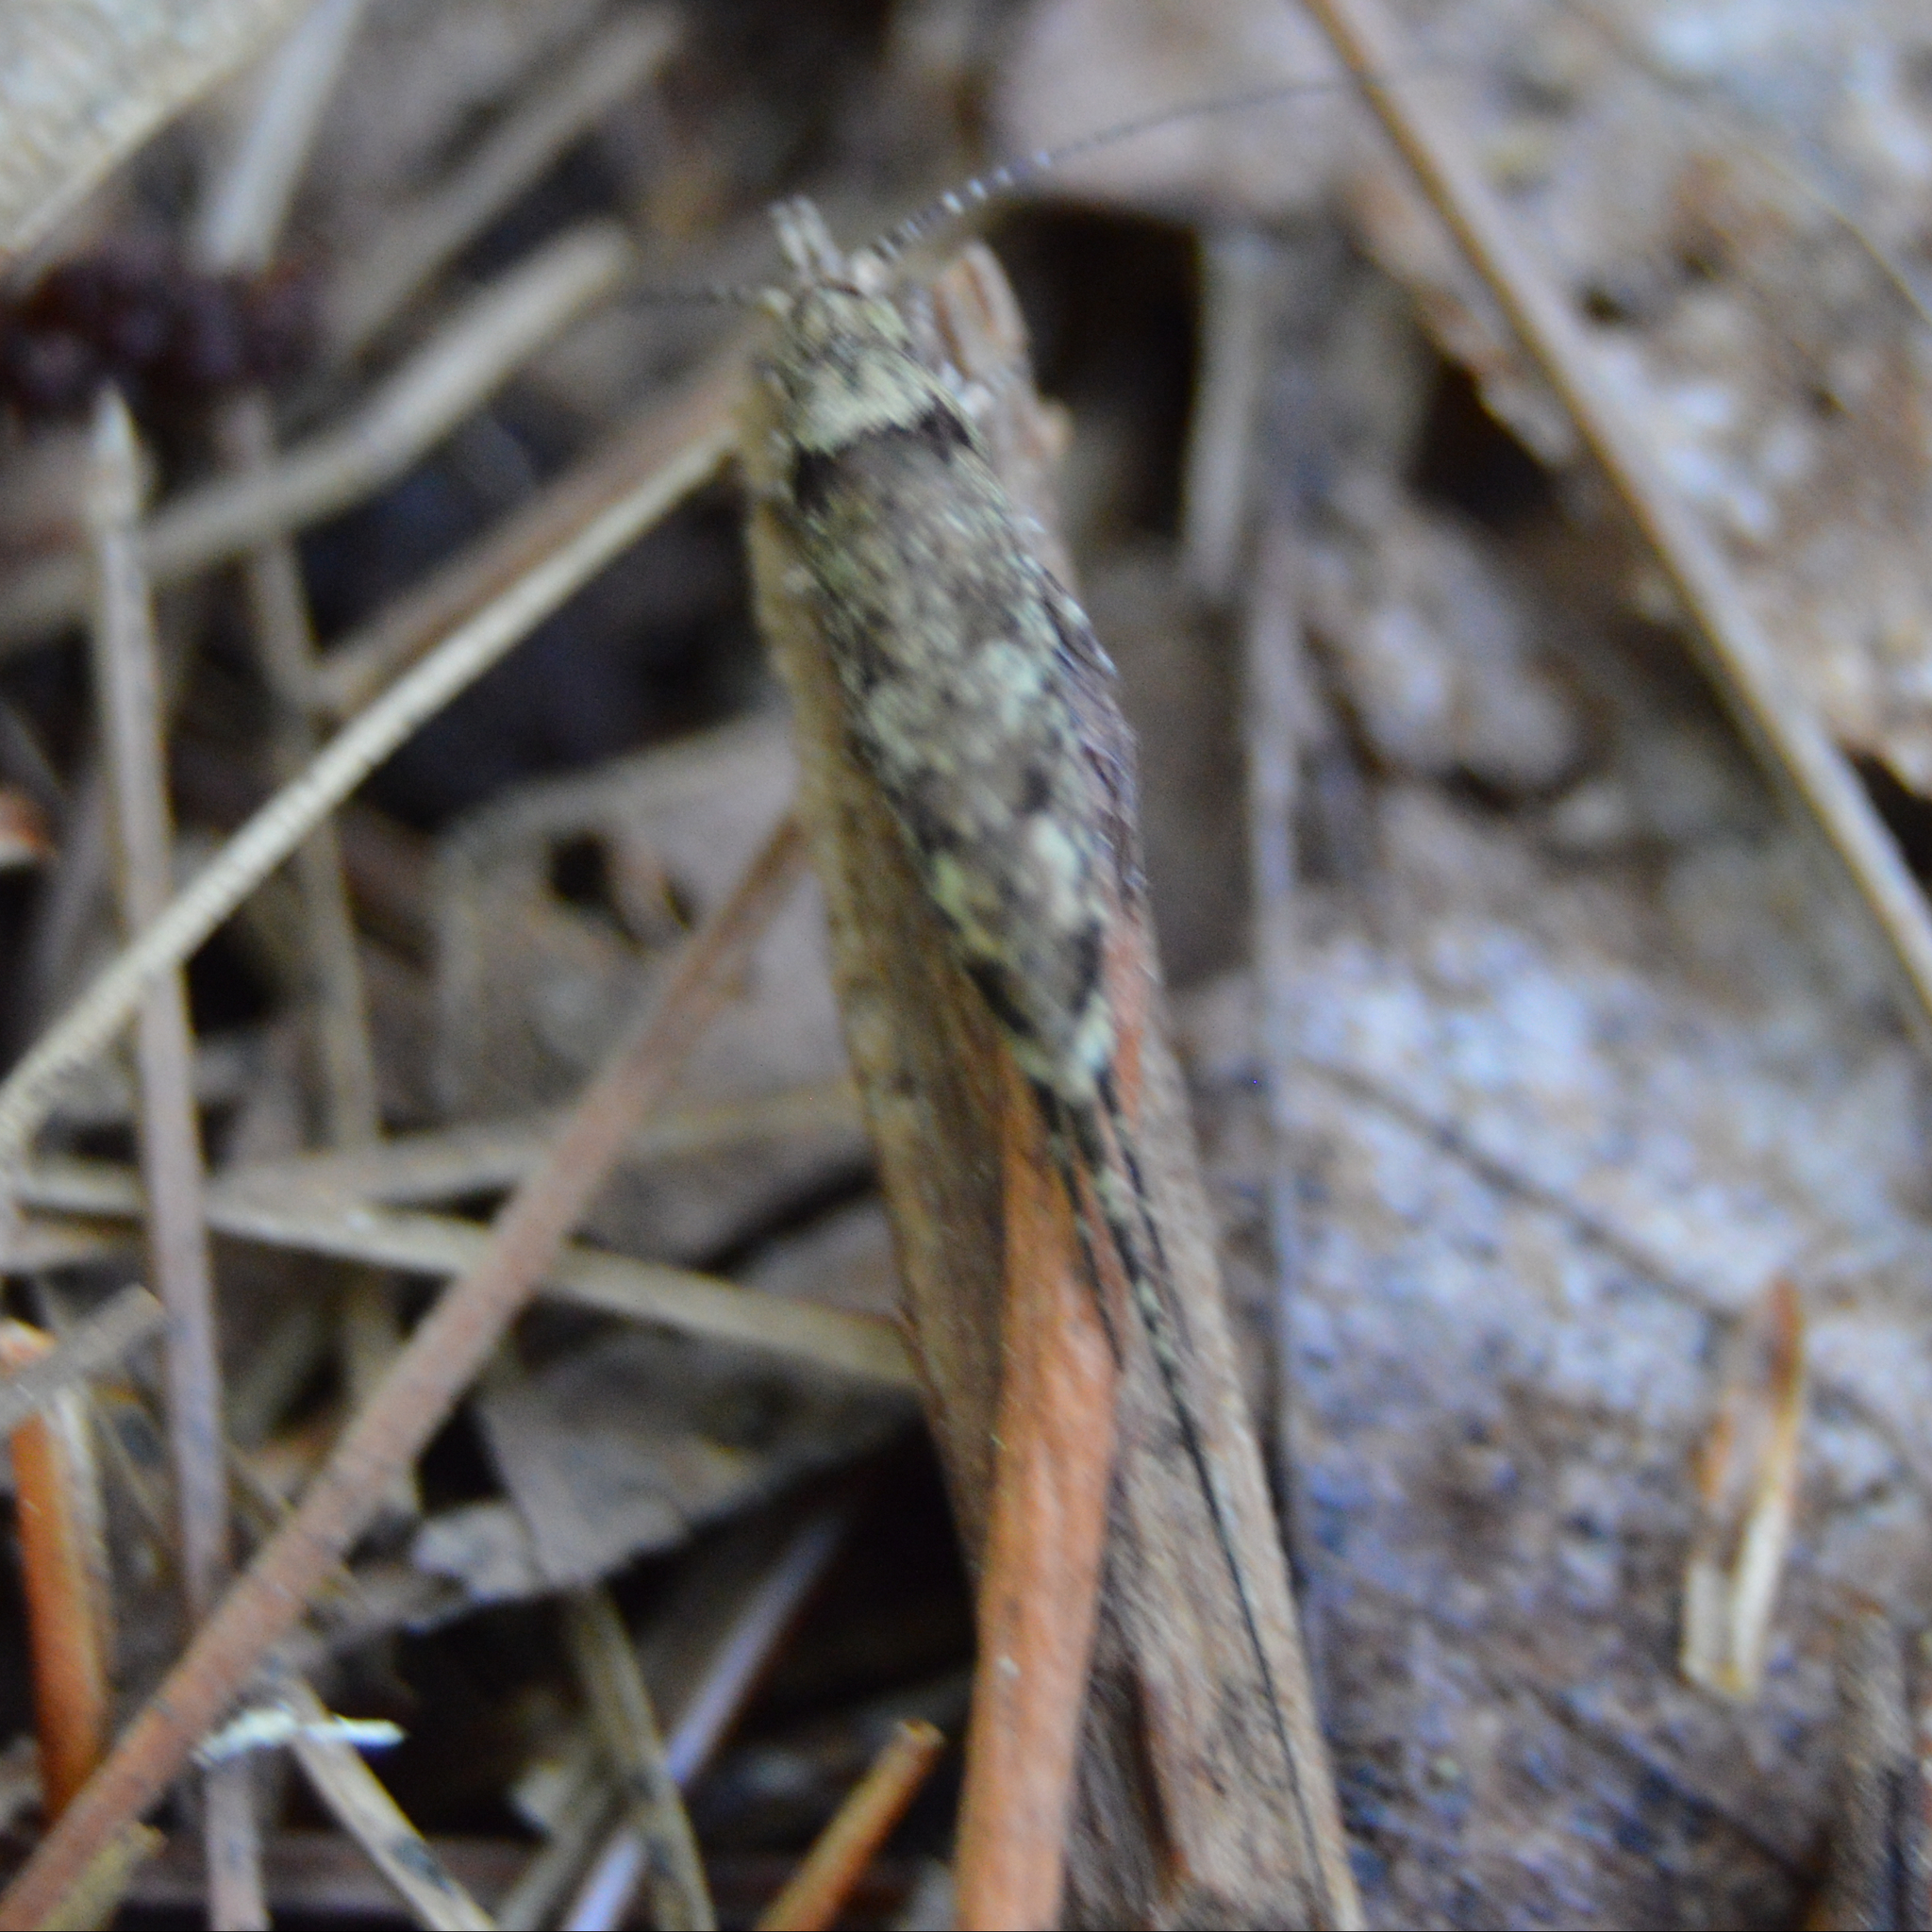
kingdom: Animalia
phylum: Arthropoda
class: Insecta
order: Archaeognatha
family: Machilidae
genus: Trigoniophthalmus
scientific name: Trigoniophthalmus alternatus
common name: Jumping bristletail
